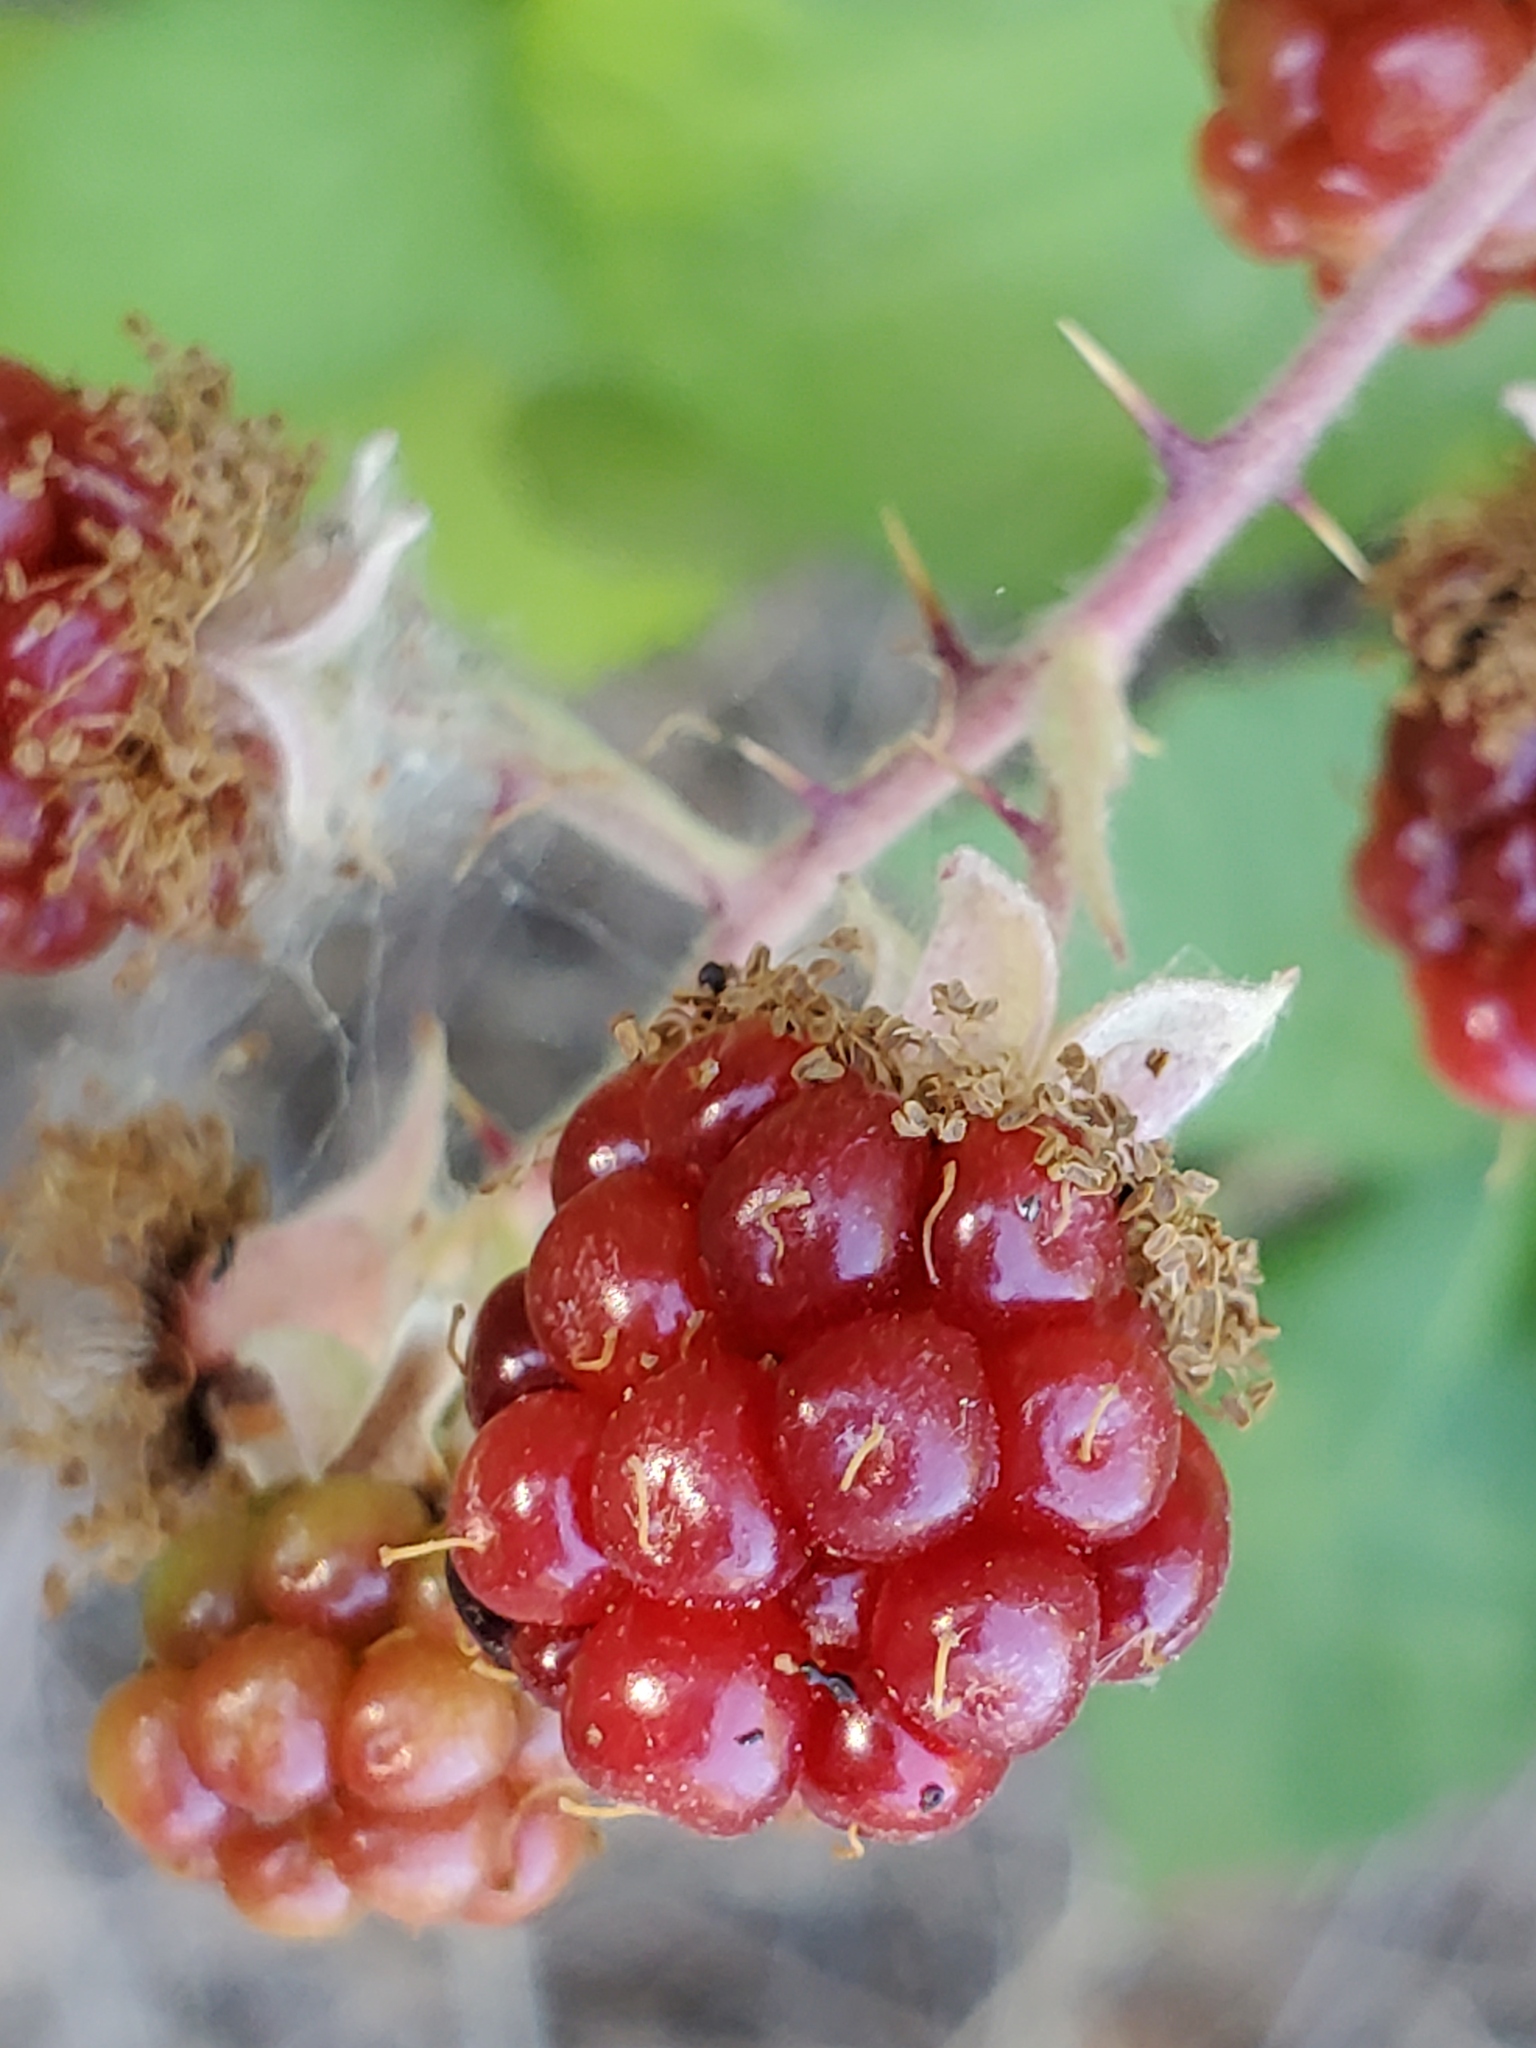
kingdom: Plantae
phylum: Tracheophyta
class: Magnoliopsida
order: Rosales
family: Rosaceae
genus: Rubus
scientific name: Rubus armeniacus
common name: Himalayan blackberry
